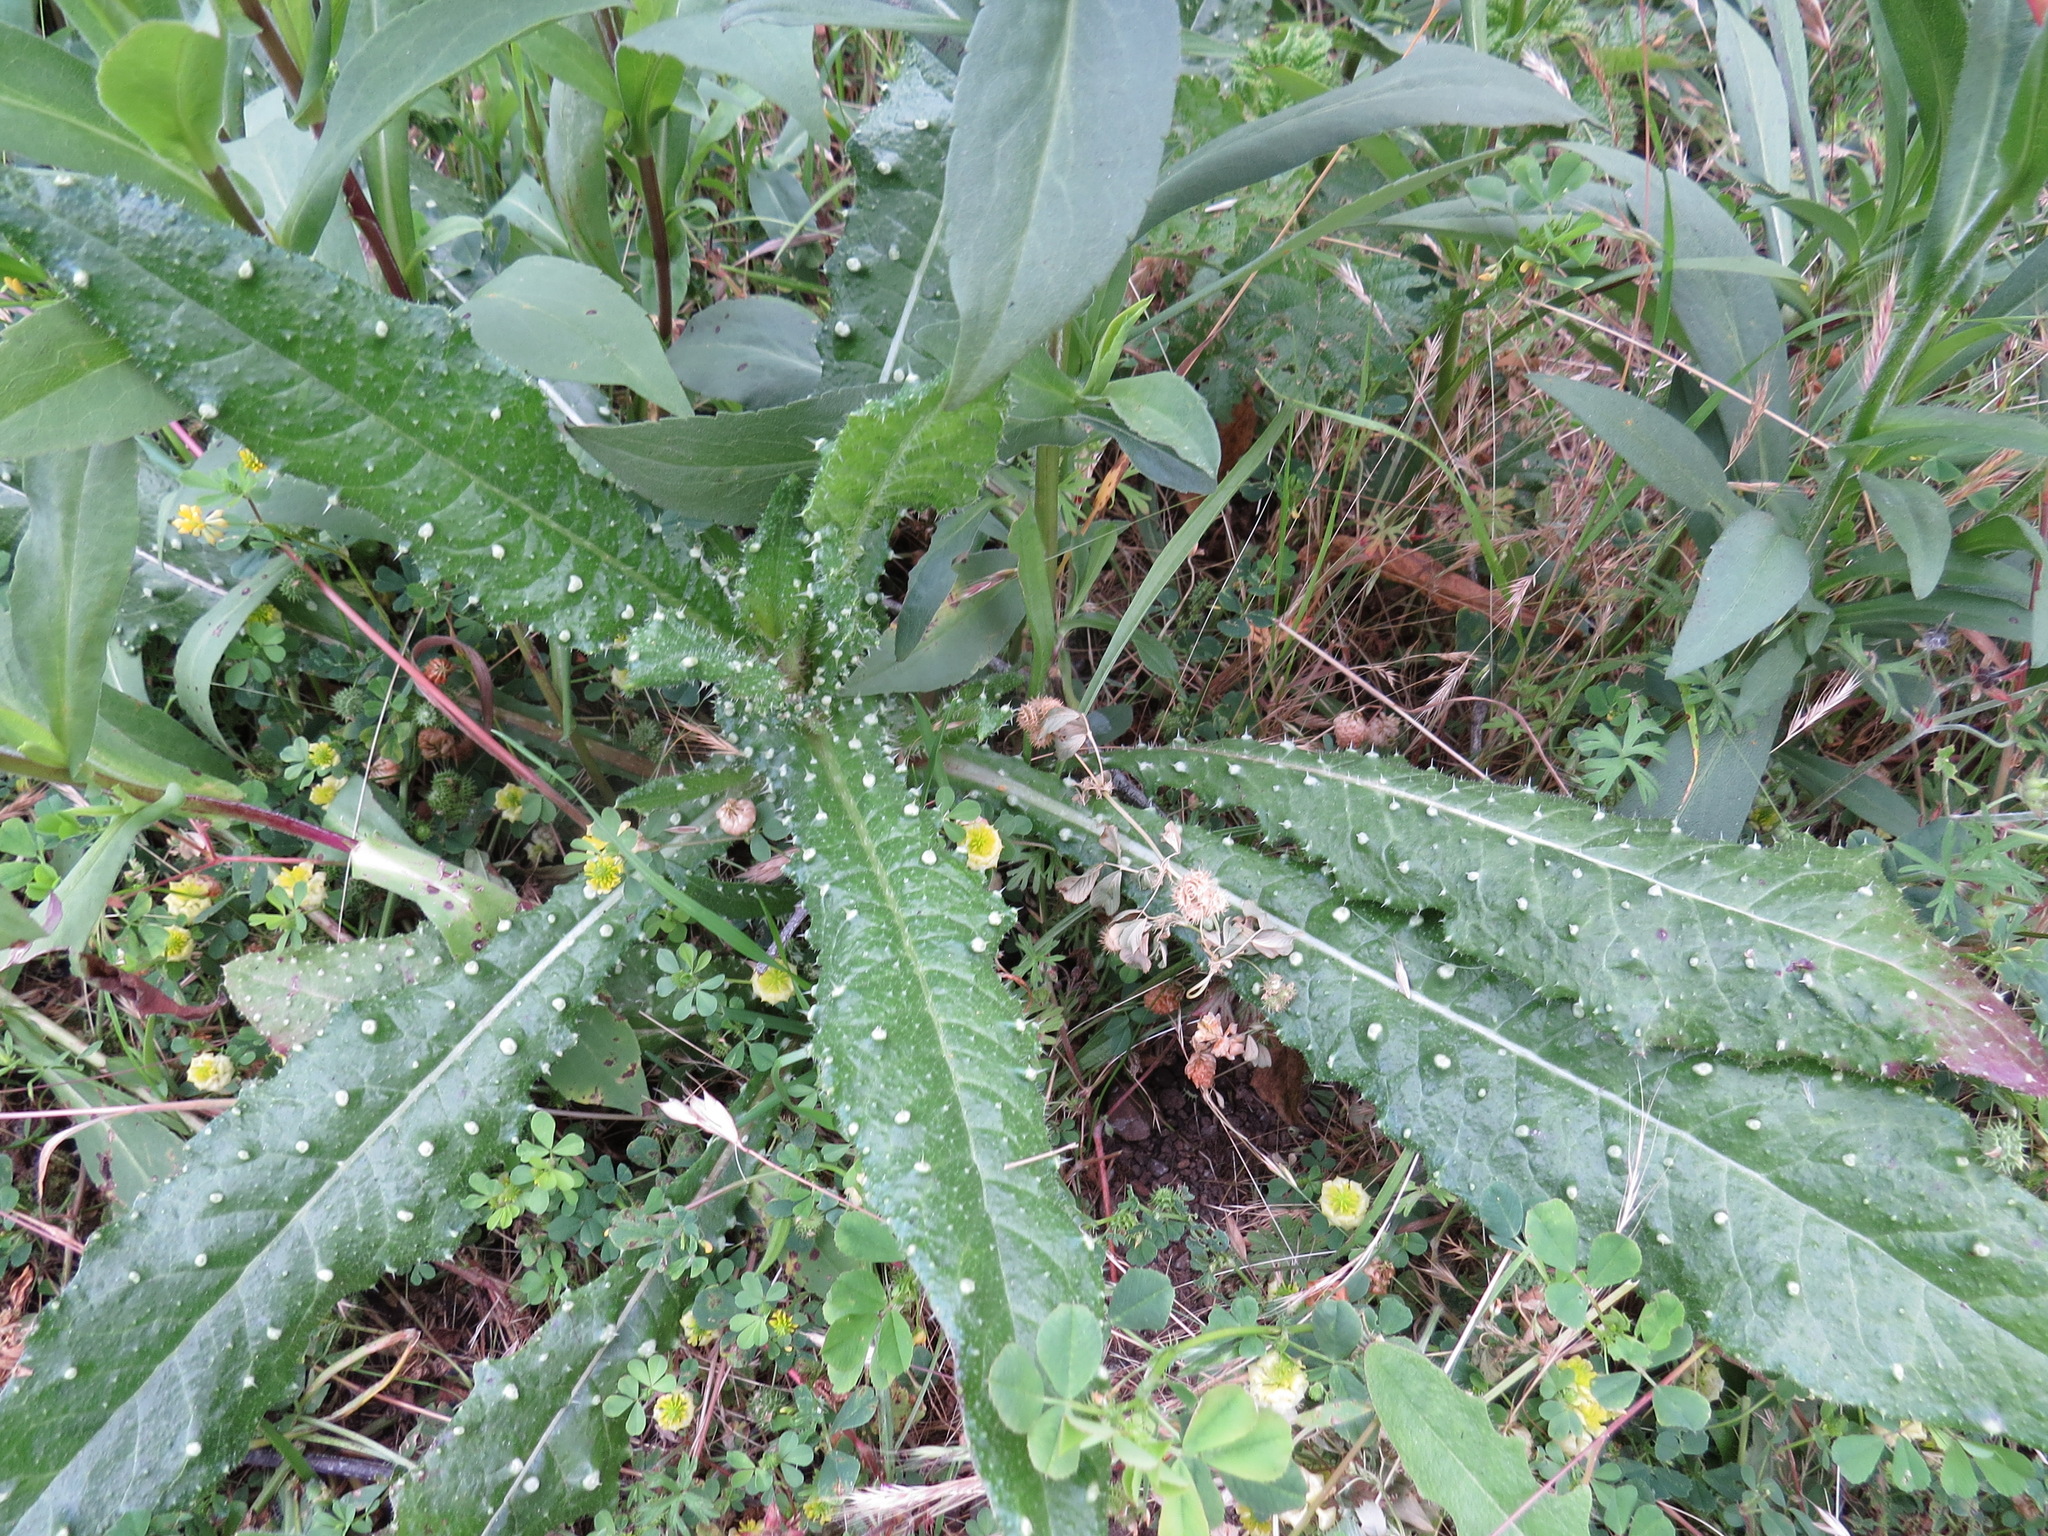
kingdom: Plantae
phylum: Tracheophyta
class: Magnoliopsida
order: Asterales
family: Asteraceae
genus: Helminthotheca
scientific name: Helminthotheca echioides
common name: Ox-tongue
